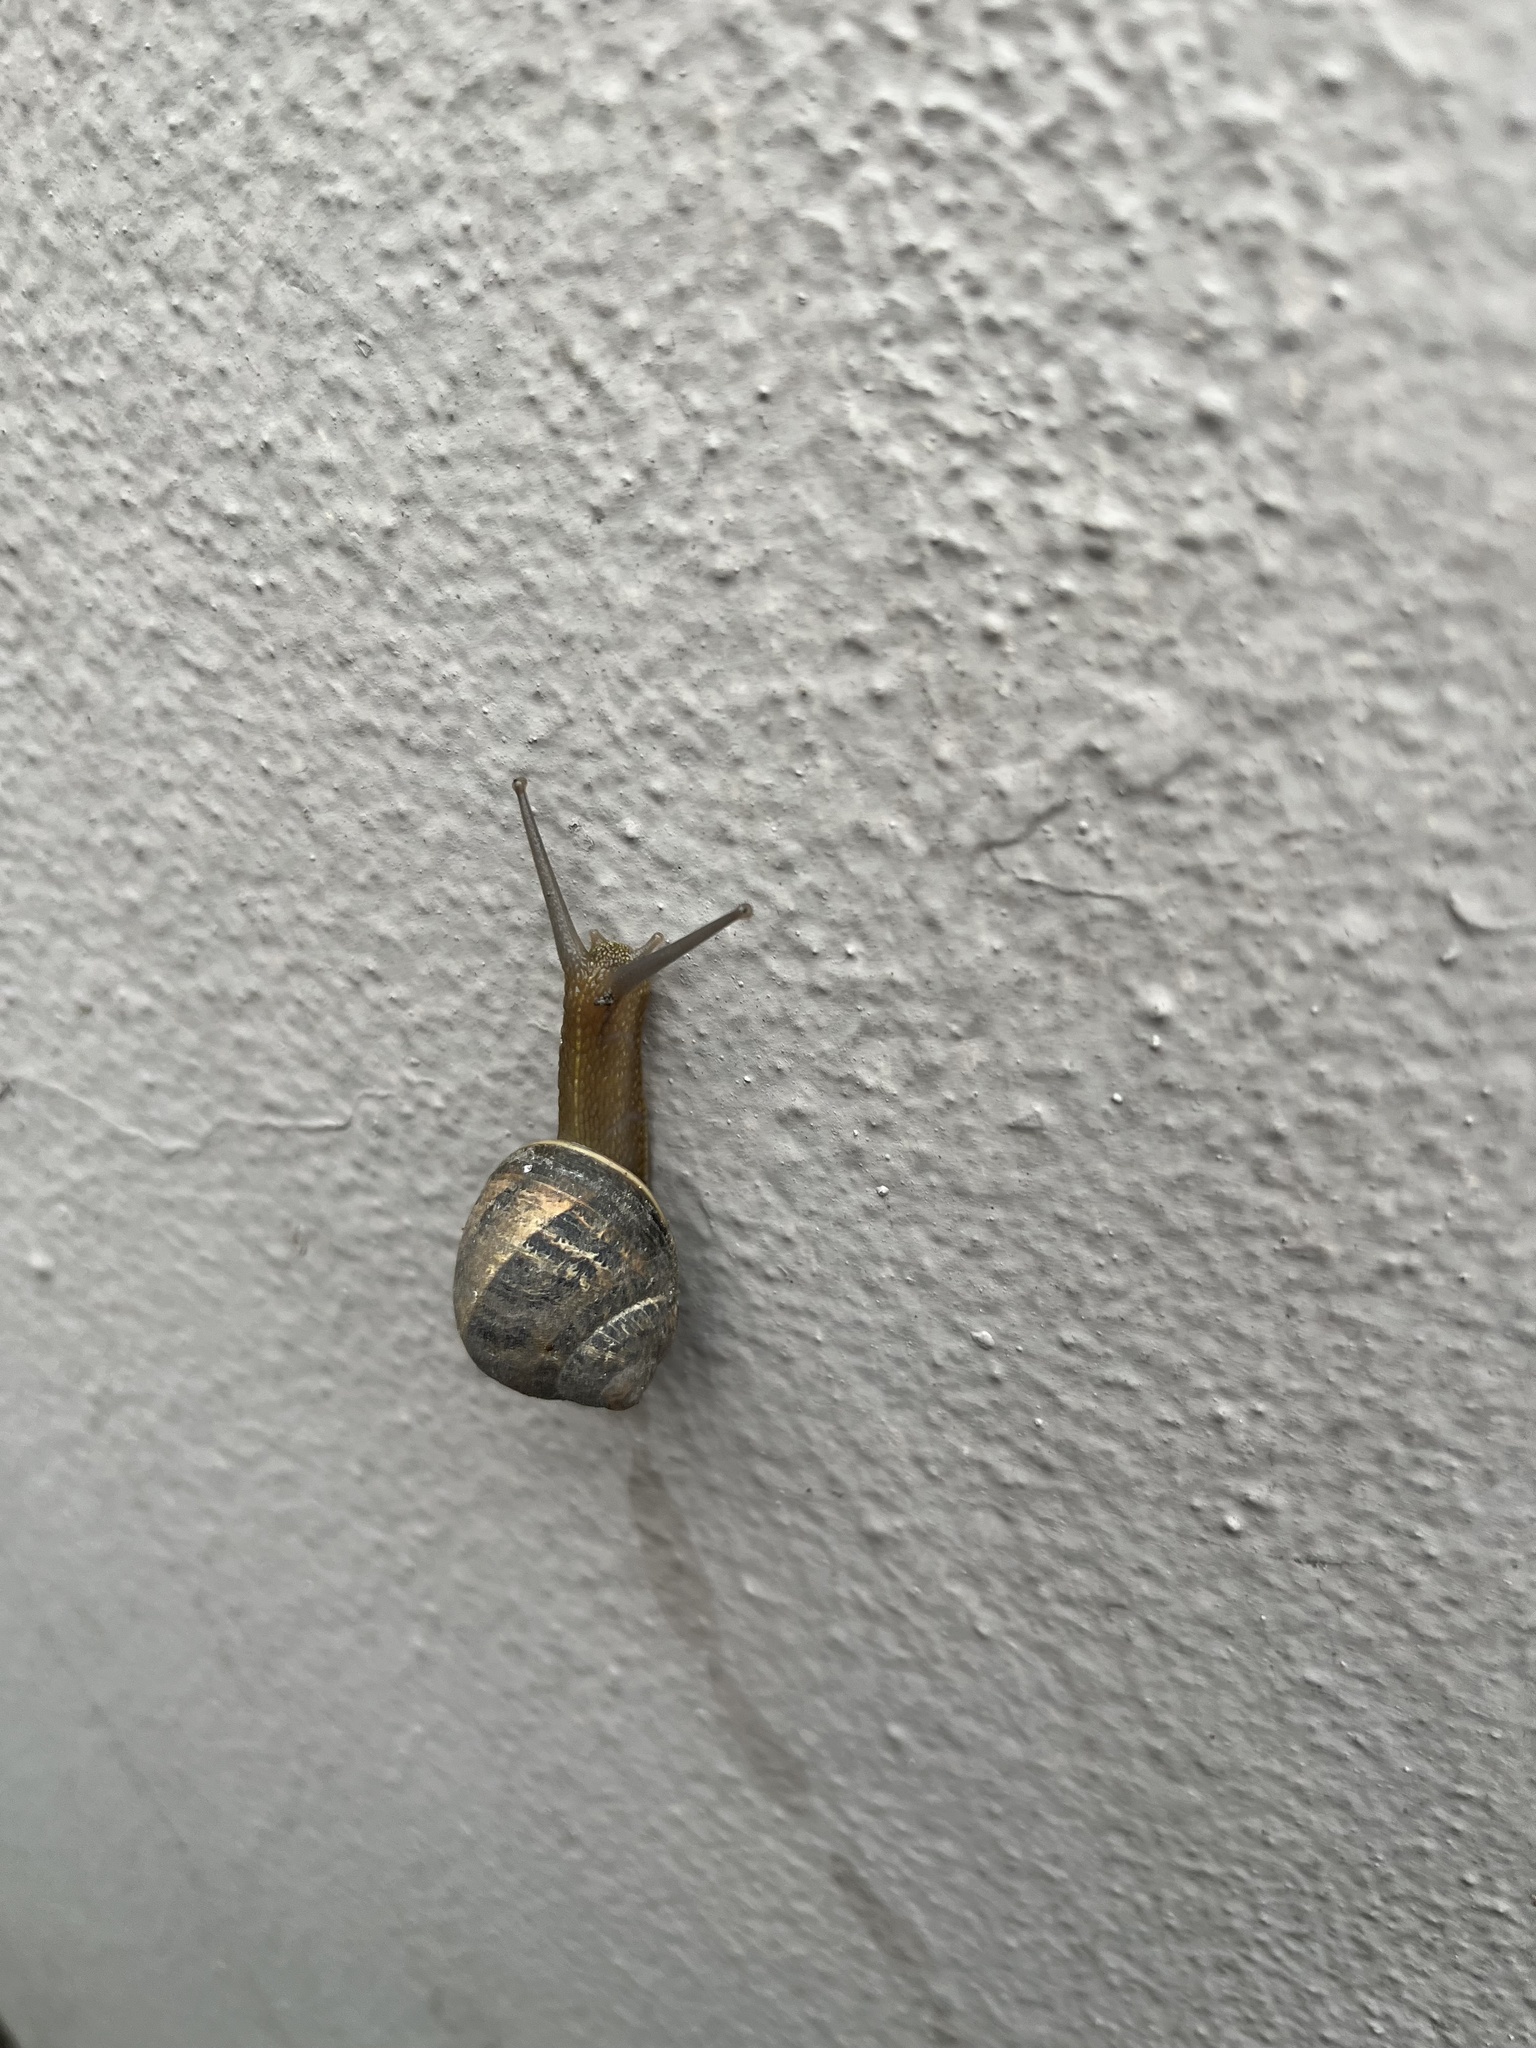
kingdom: Animalia
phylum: Mollusca
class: Gastropoda
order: Stylommatophora
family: Helicidae
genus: Cornu
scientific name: Cornu aspersum
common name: Brown garden snail
